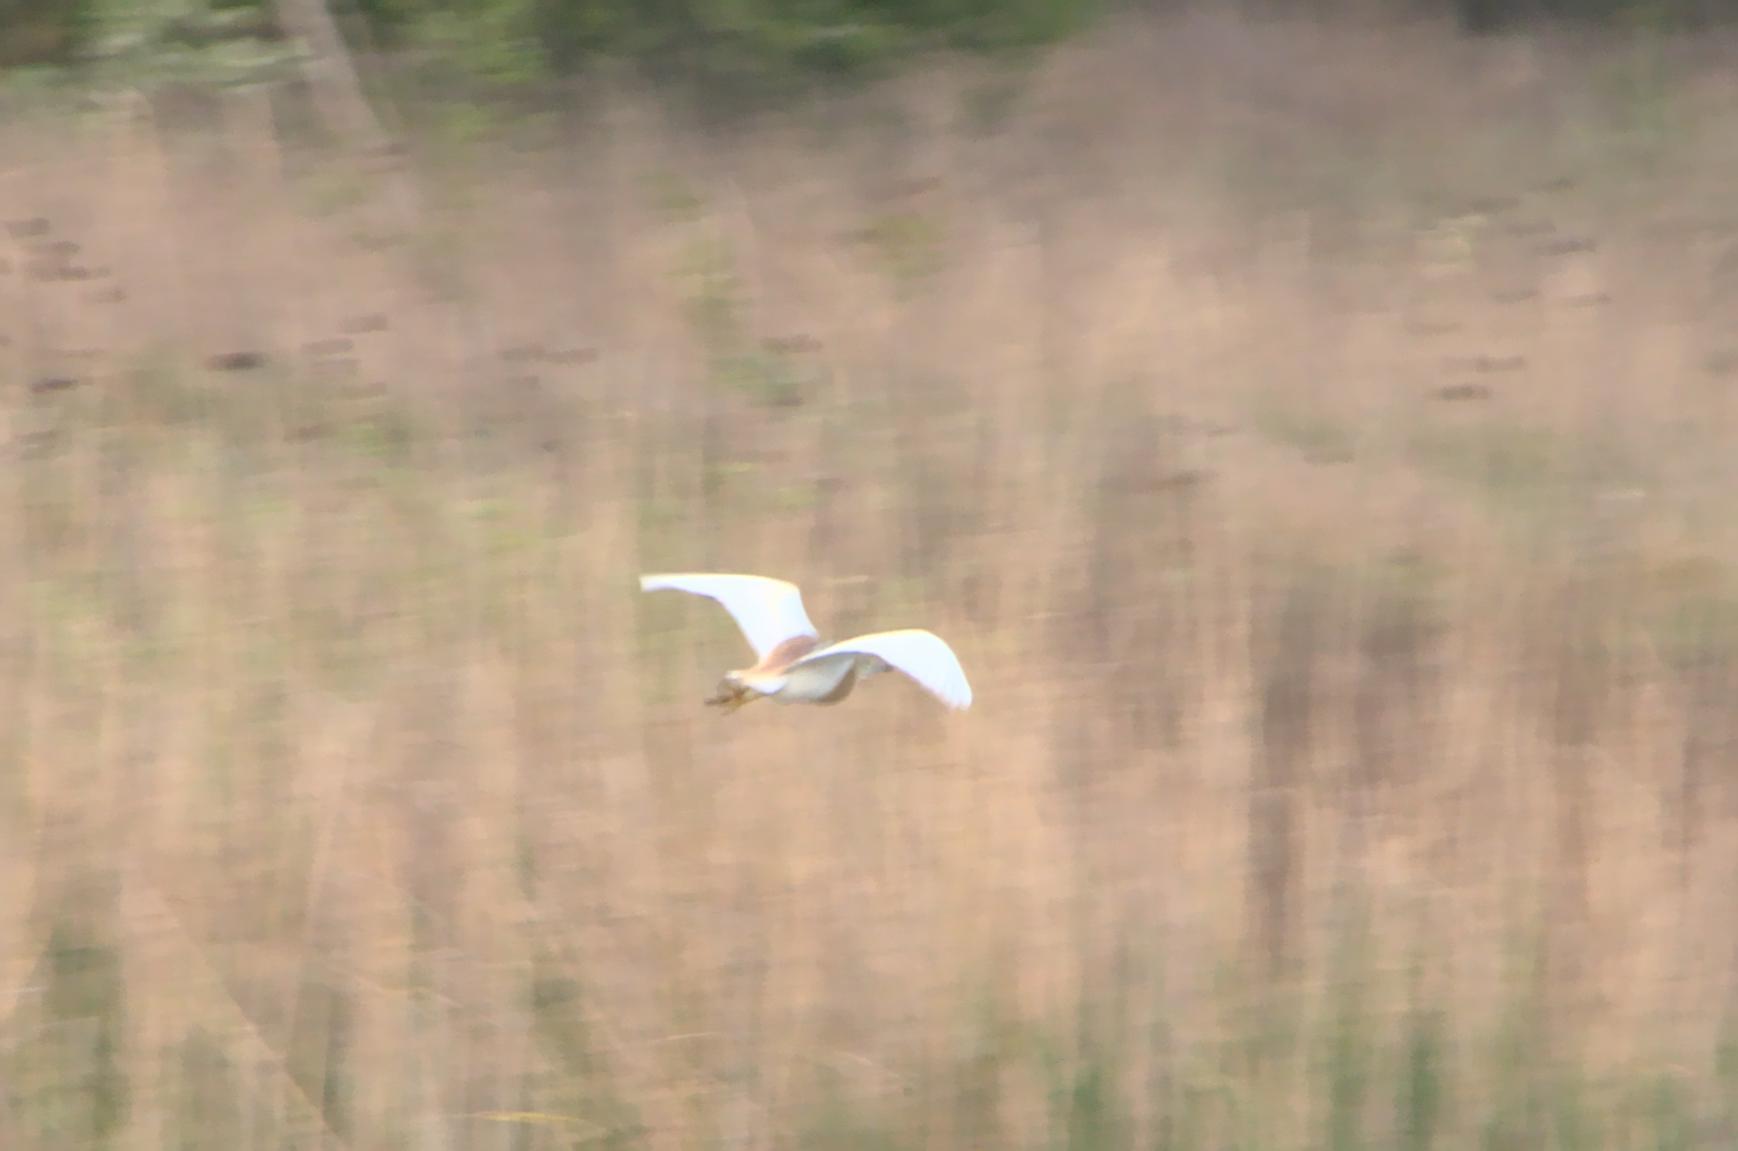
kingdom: Animalia
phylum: Chordata
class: Aves
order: Pelecaniformes
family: Ardeidae
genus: Ardeola
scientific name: Ardeola ralloides
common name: Squacco heron
